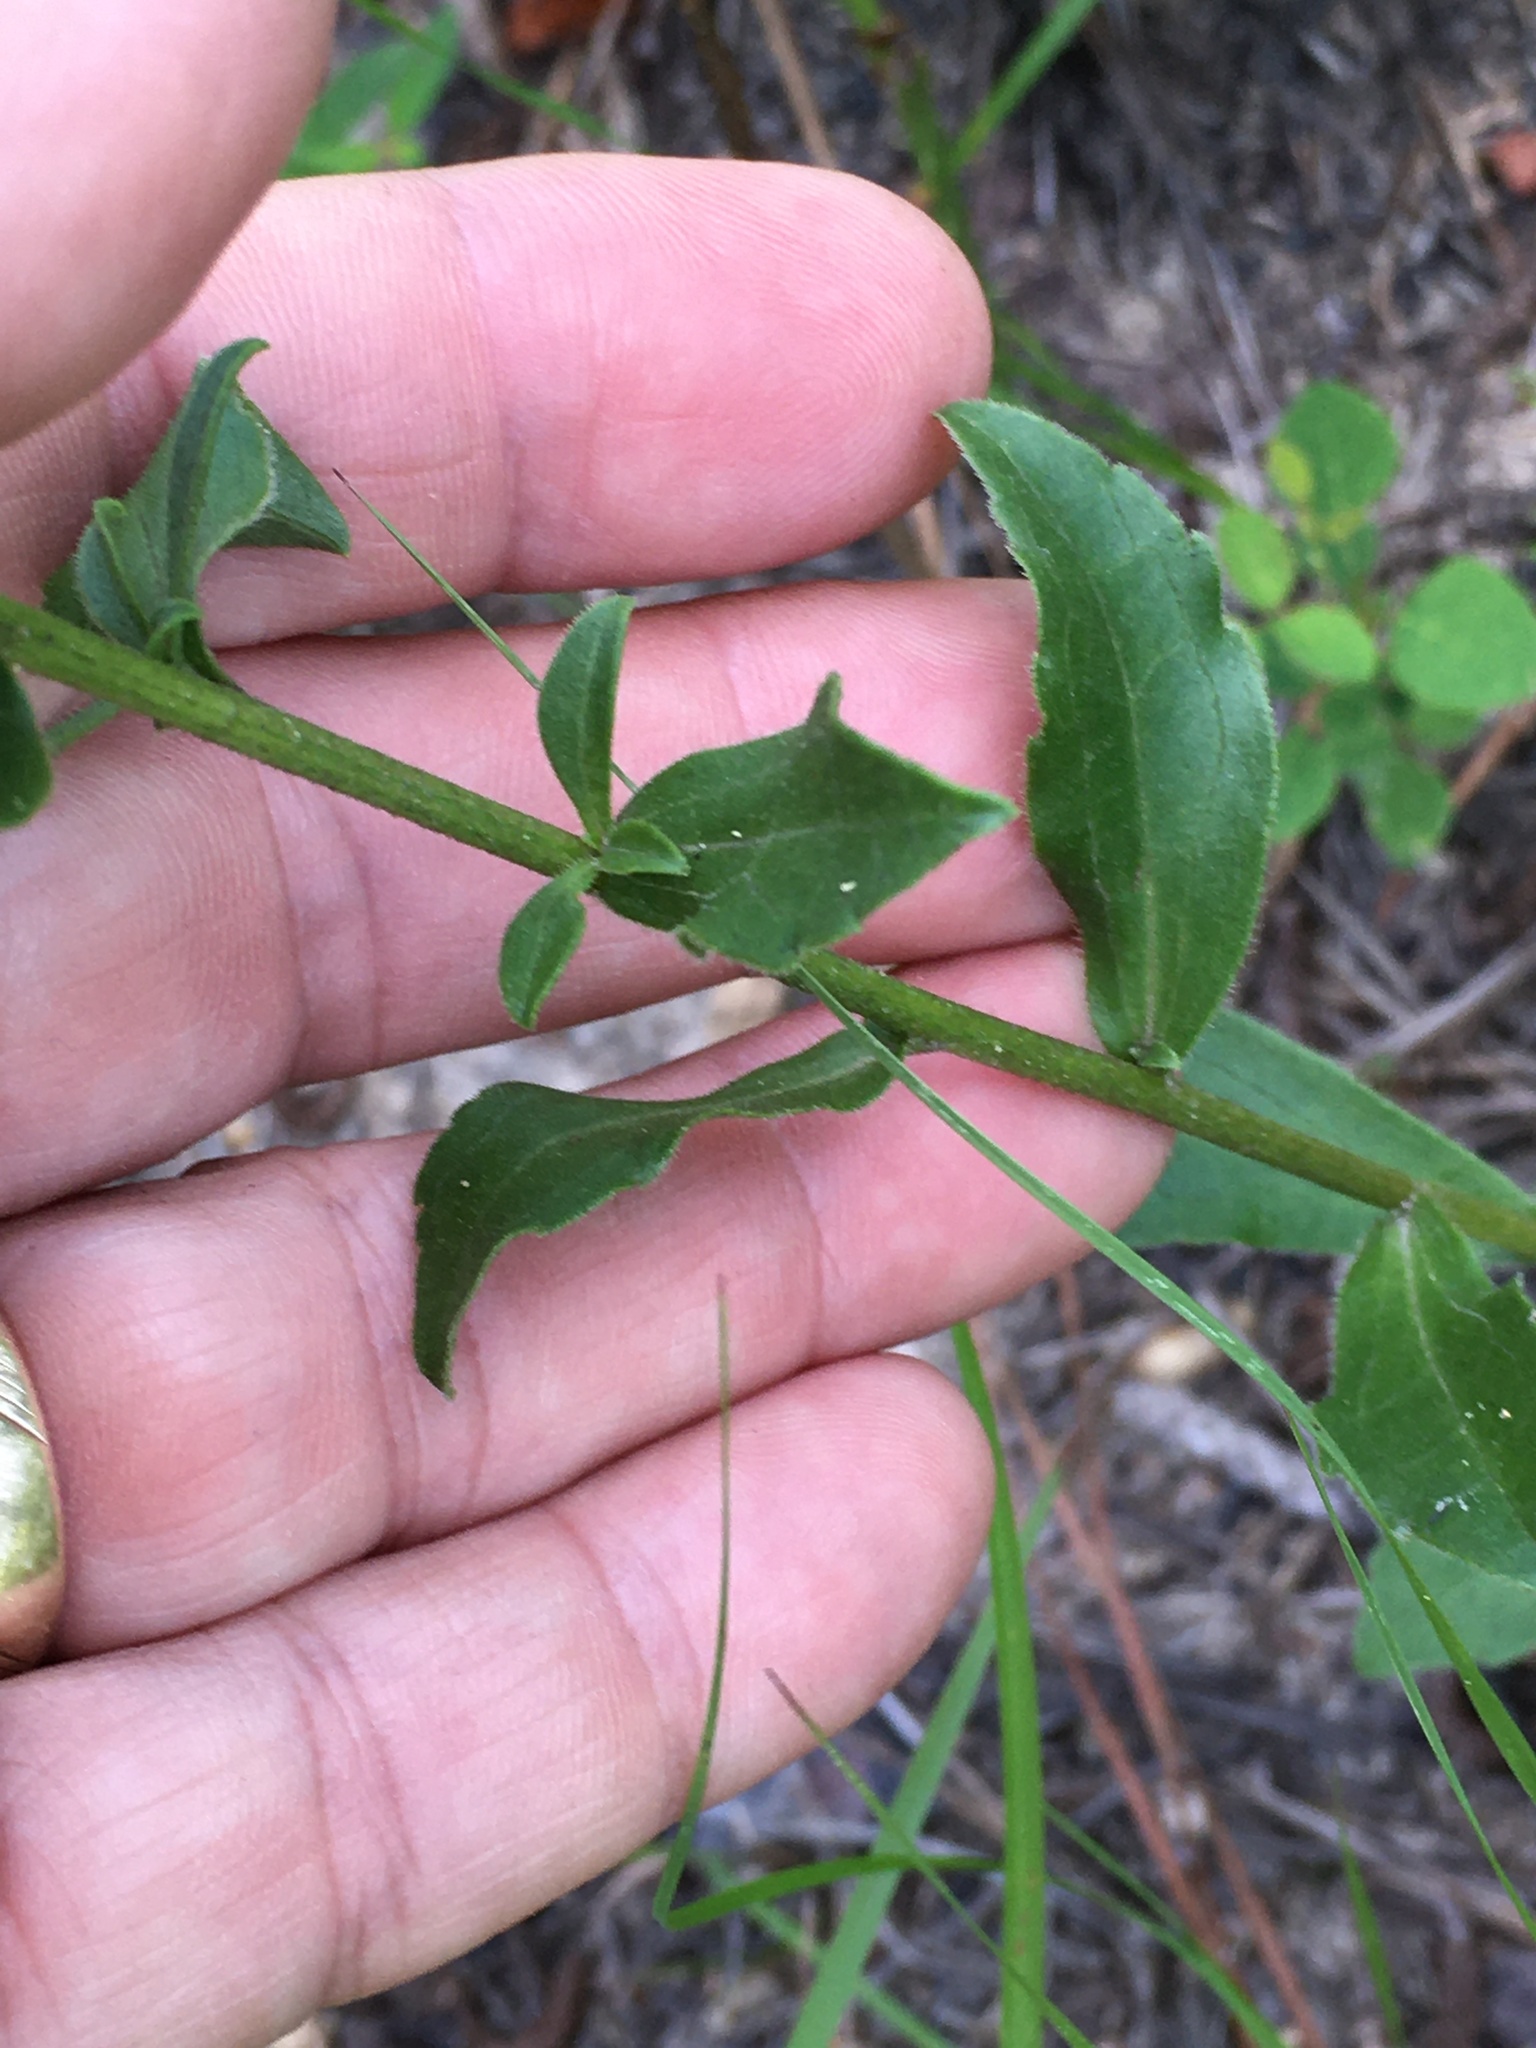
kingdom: Plantae
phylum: Tracheophyta
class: Magnoliopsida
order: Asterales
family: Asteraceae
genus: Sericocarpus
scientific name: Sericocarpus asteroides
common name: Toothed white-top aster
